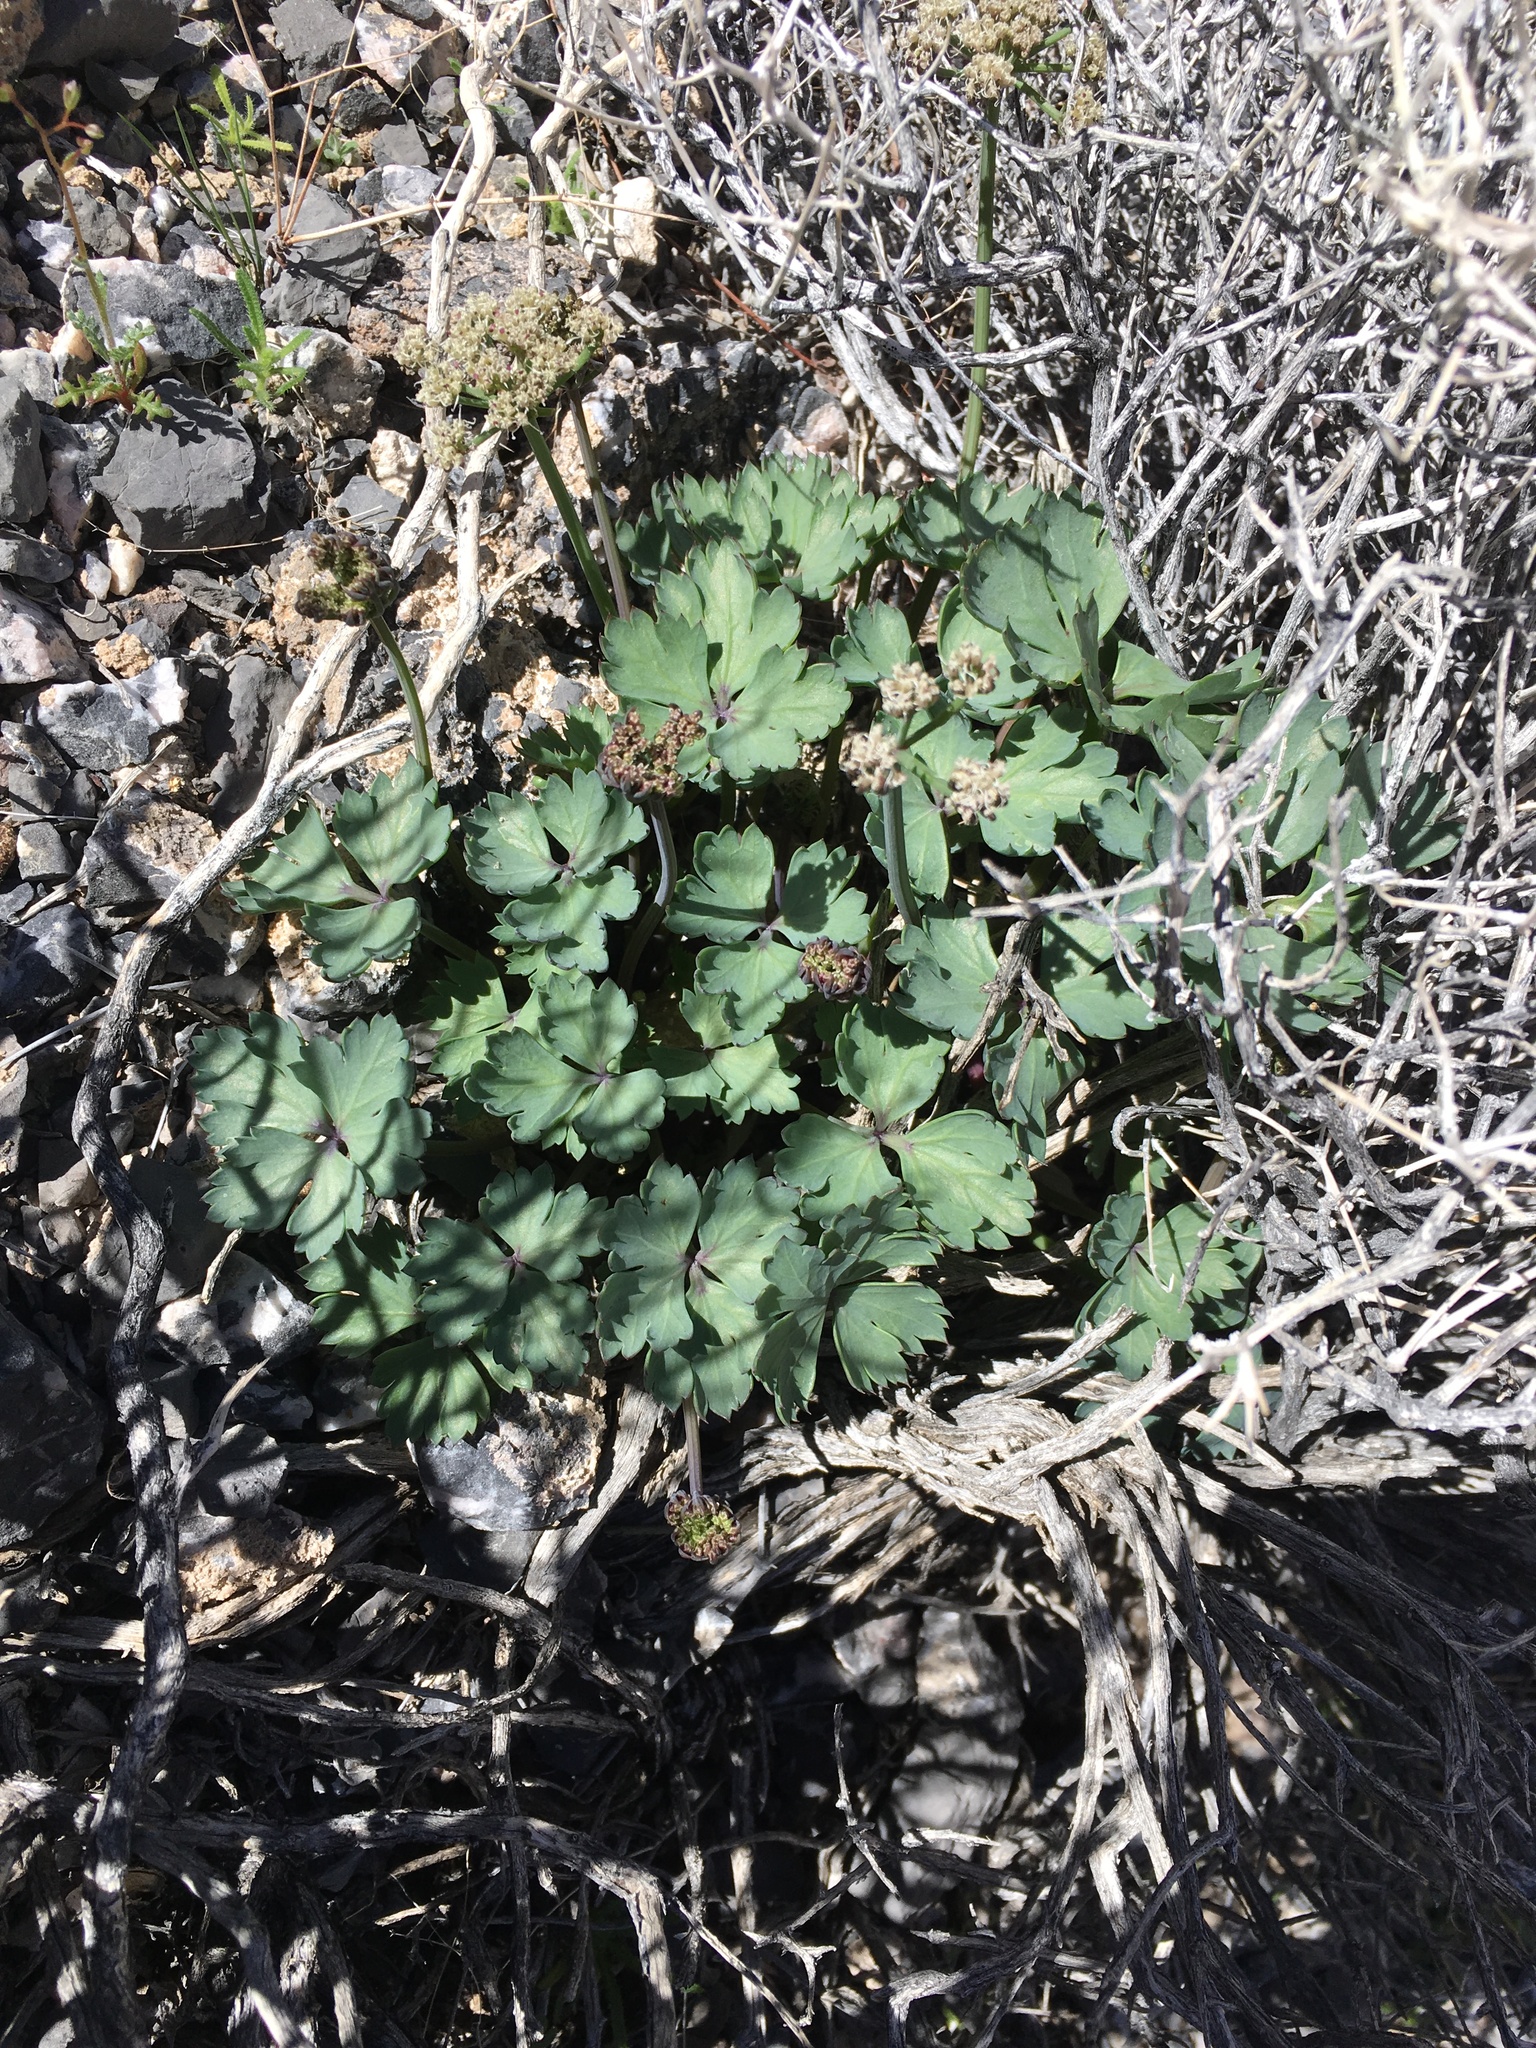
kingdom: Plantae
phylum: Tracheophyta
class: Magnoliopsida
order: Apiales
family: Apiaceae
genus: Cymopterus
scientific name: Cymopterus gilmanii
